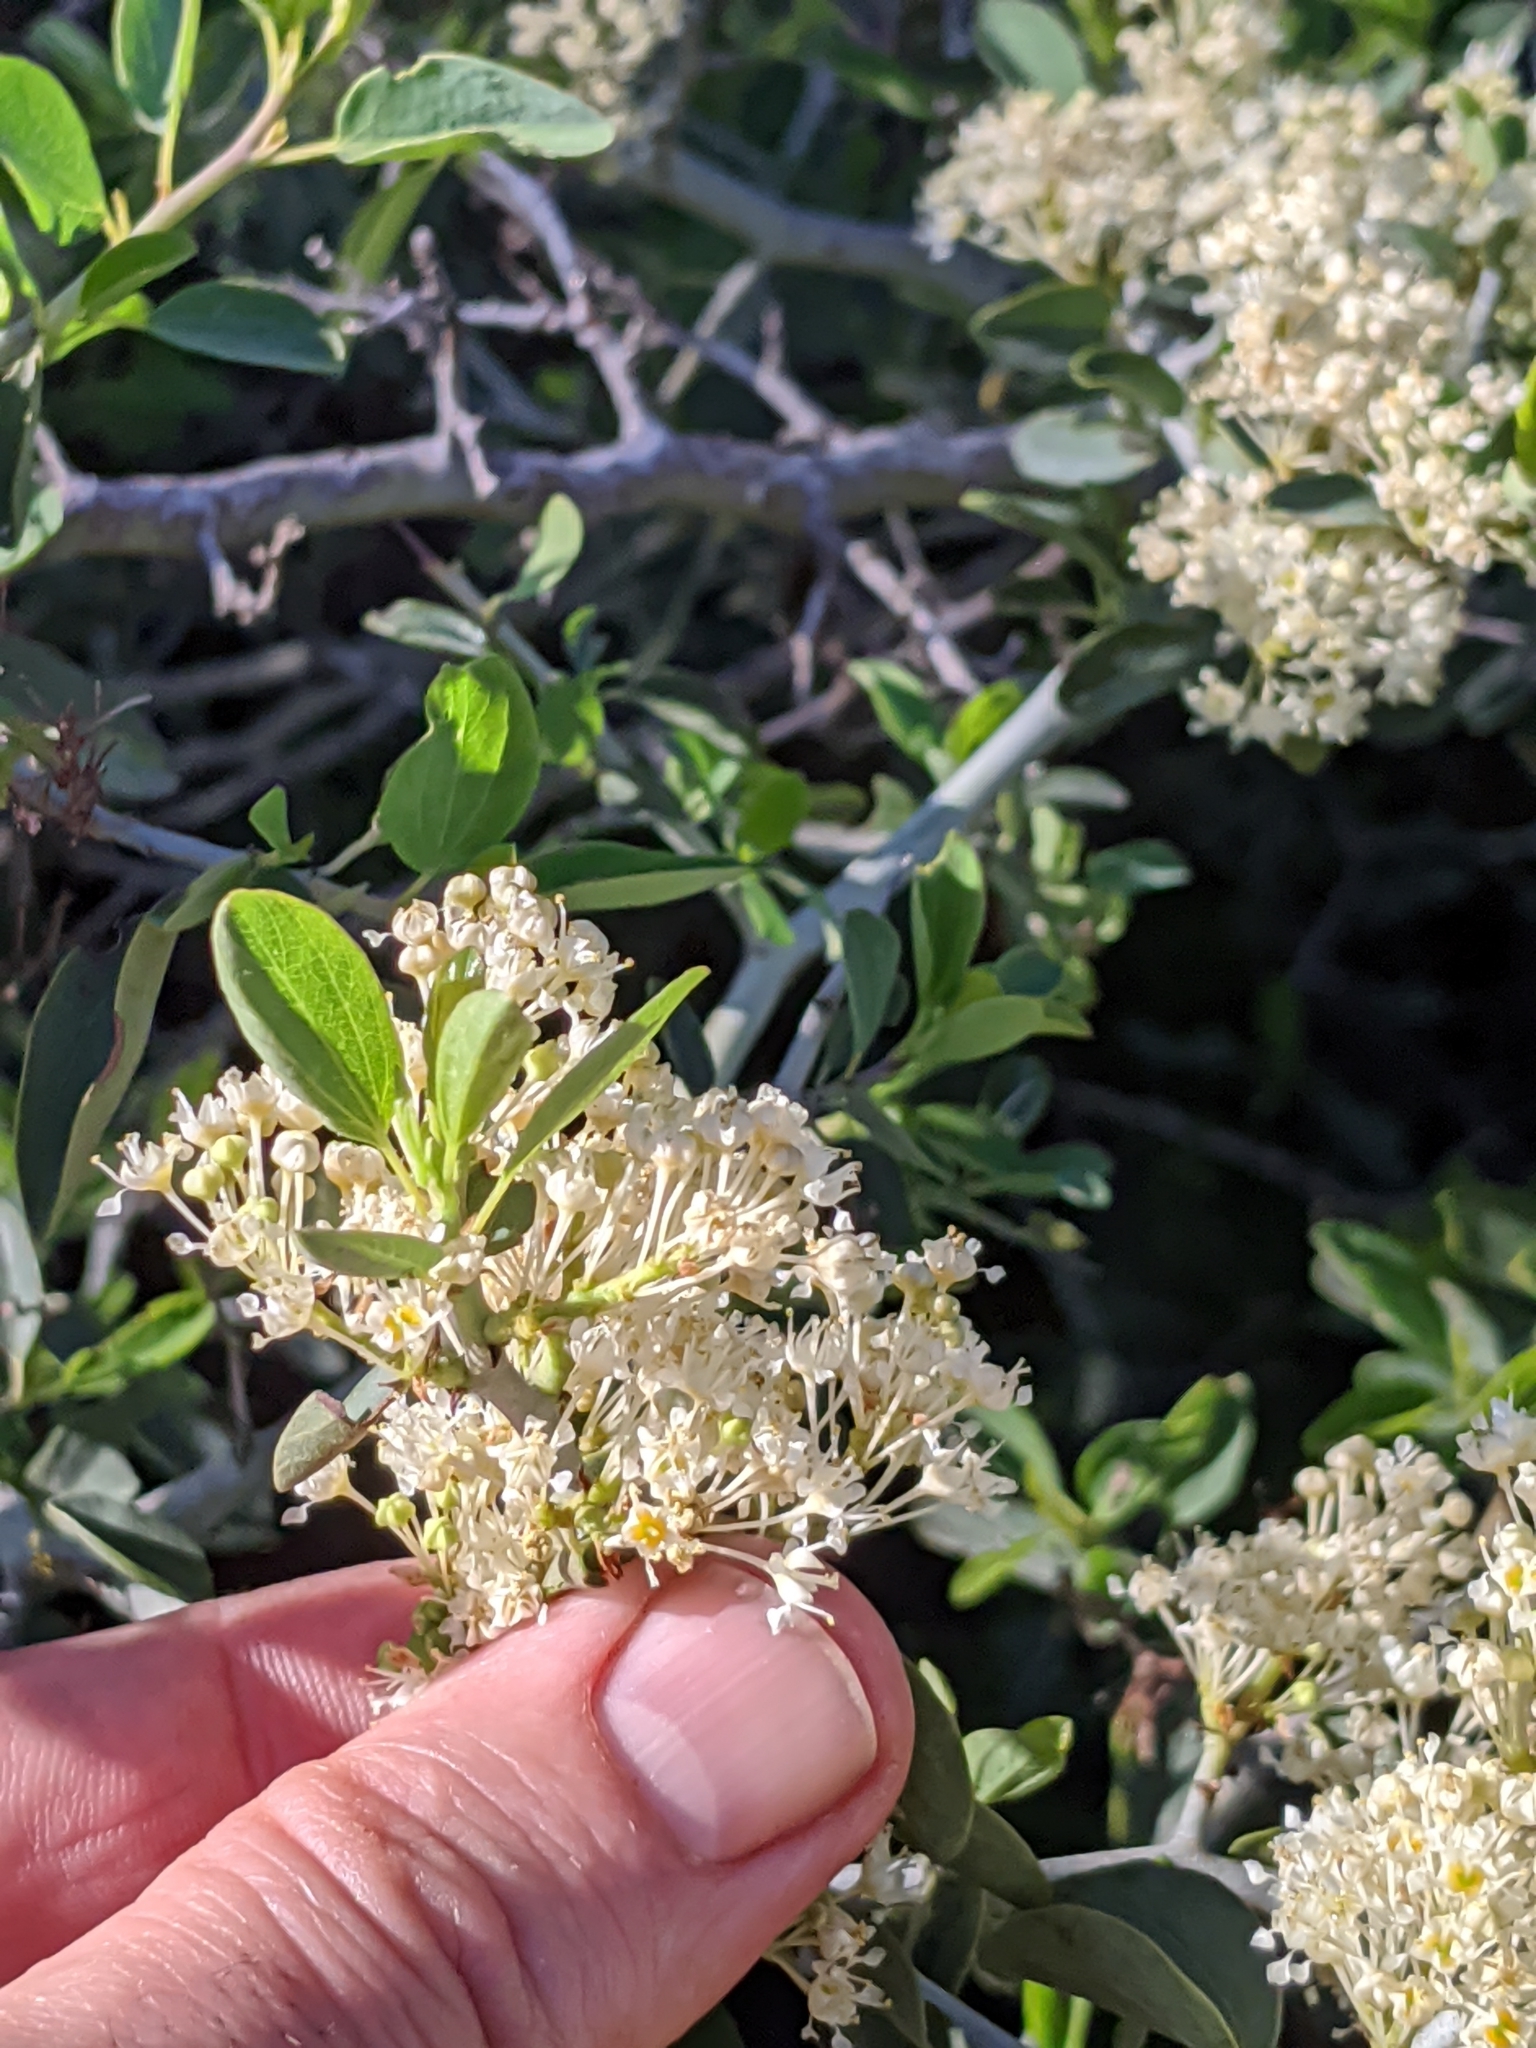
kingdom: Plantae
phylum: Tracheophyta
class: Magnoliopsida
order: Rosales
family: Rhamnaceae
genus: Ceanothus
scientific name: Ceanothus cordulatus
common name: Mountain whitethorn
